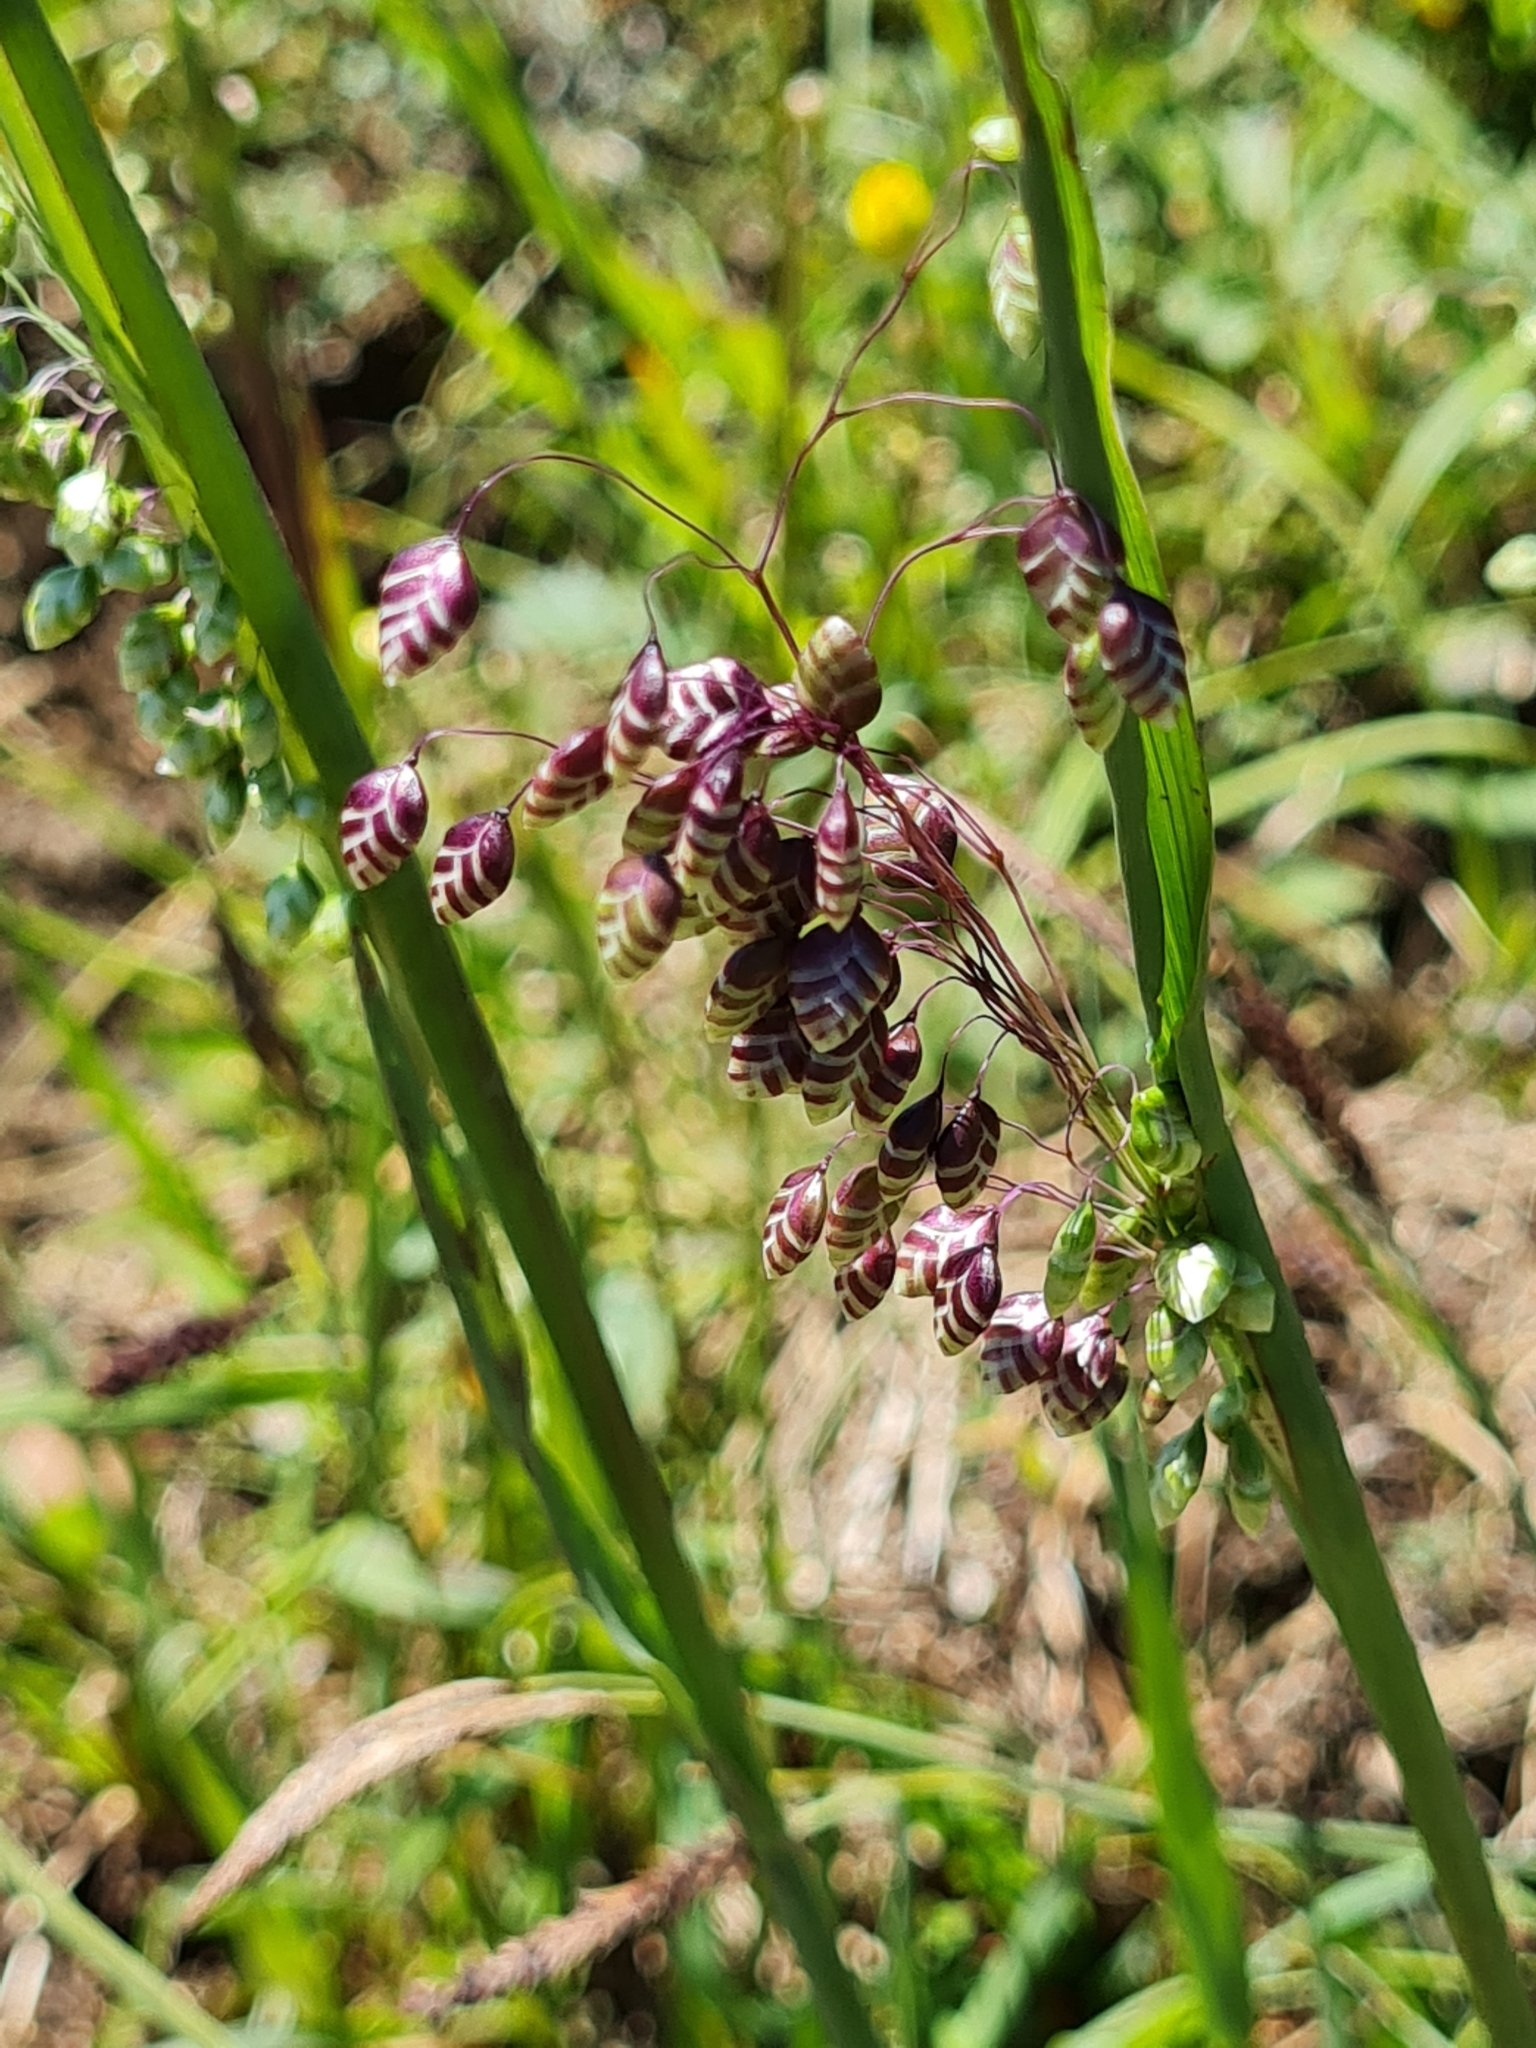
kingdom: Plantae
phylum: Tracheophyta
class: Liliopsida
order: Poales
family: Poaceae
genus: Briza
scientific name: Briza media
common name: Quaking grass
